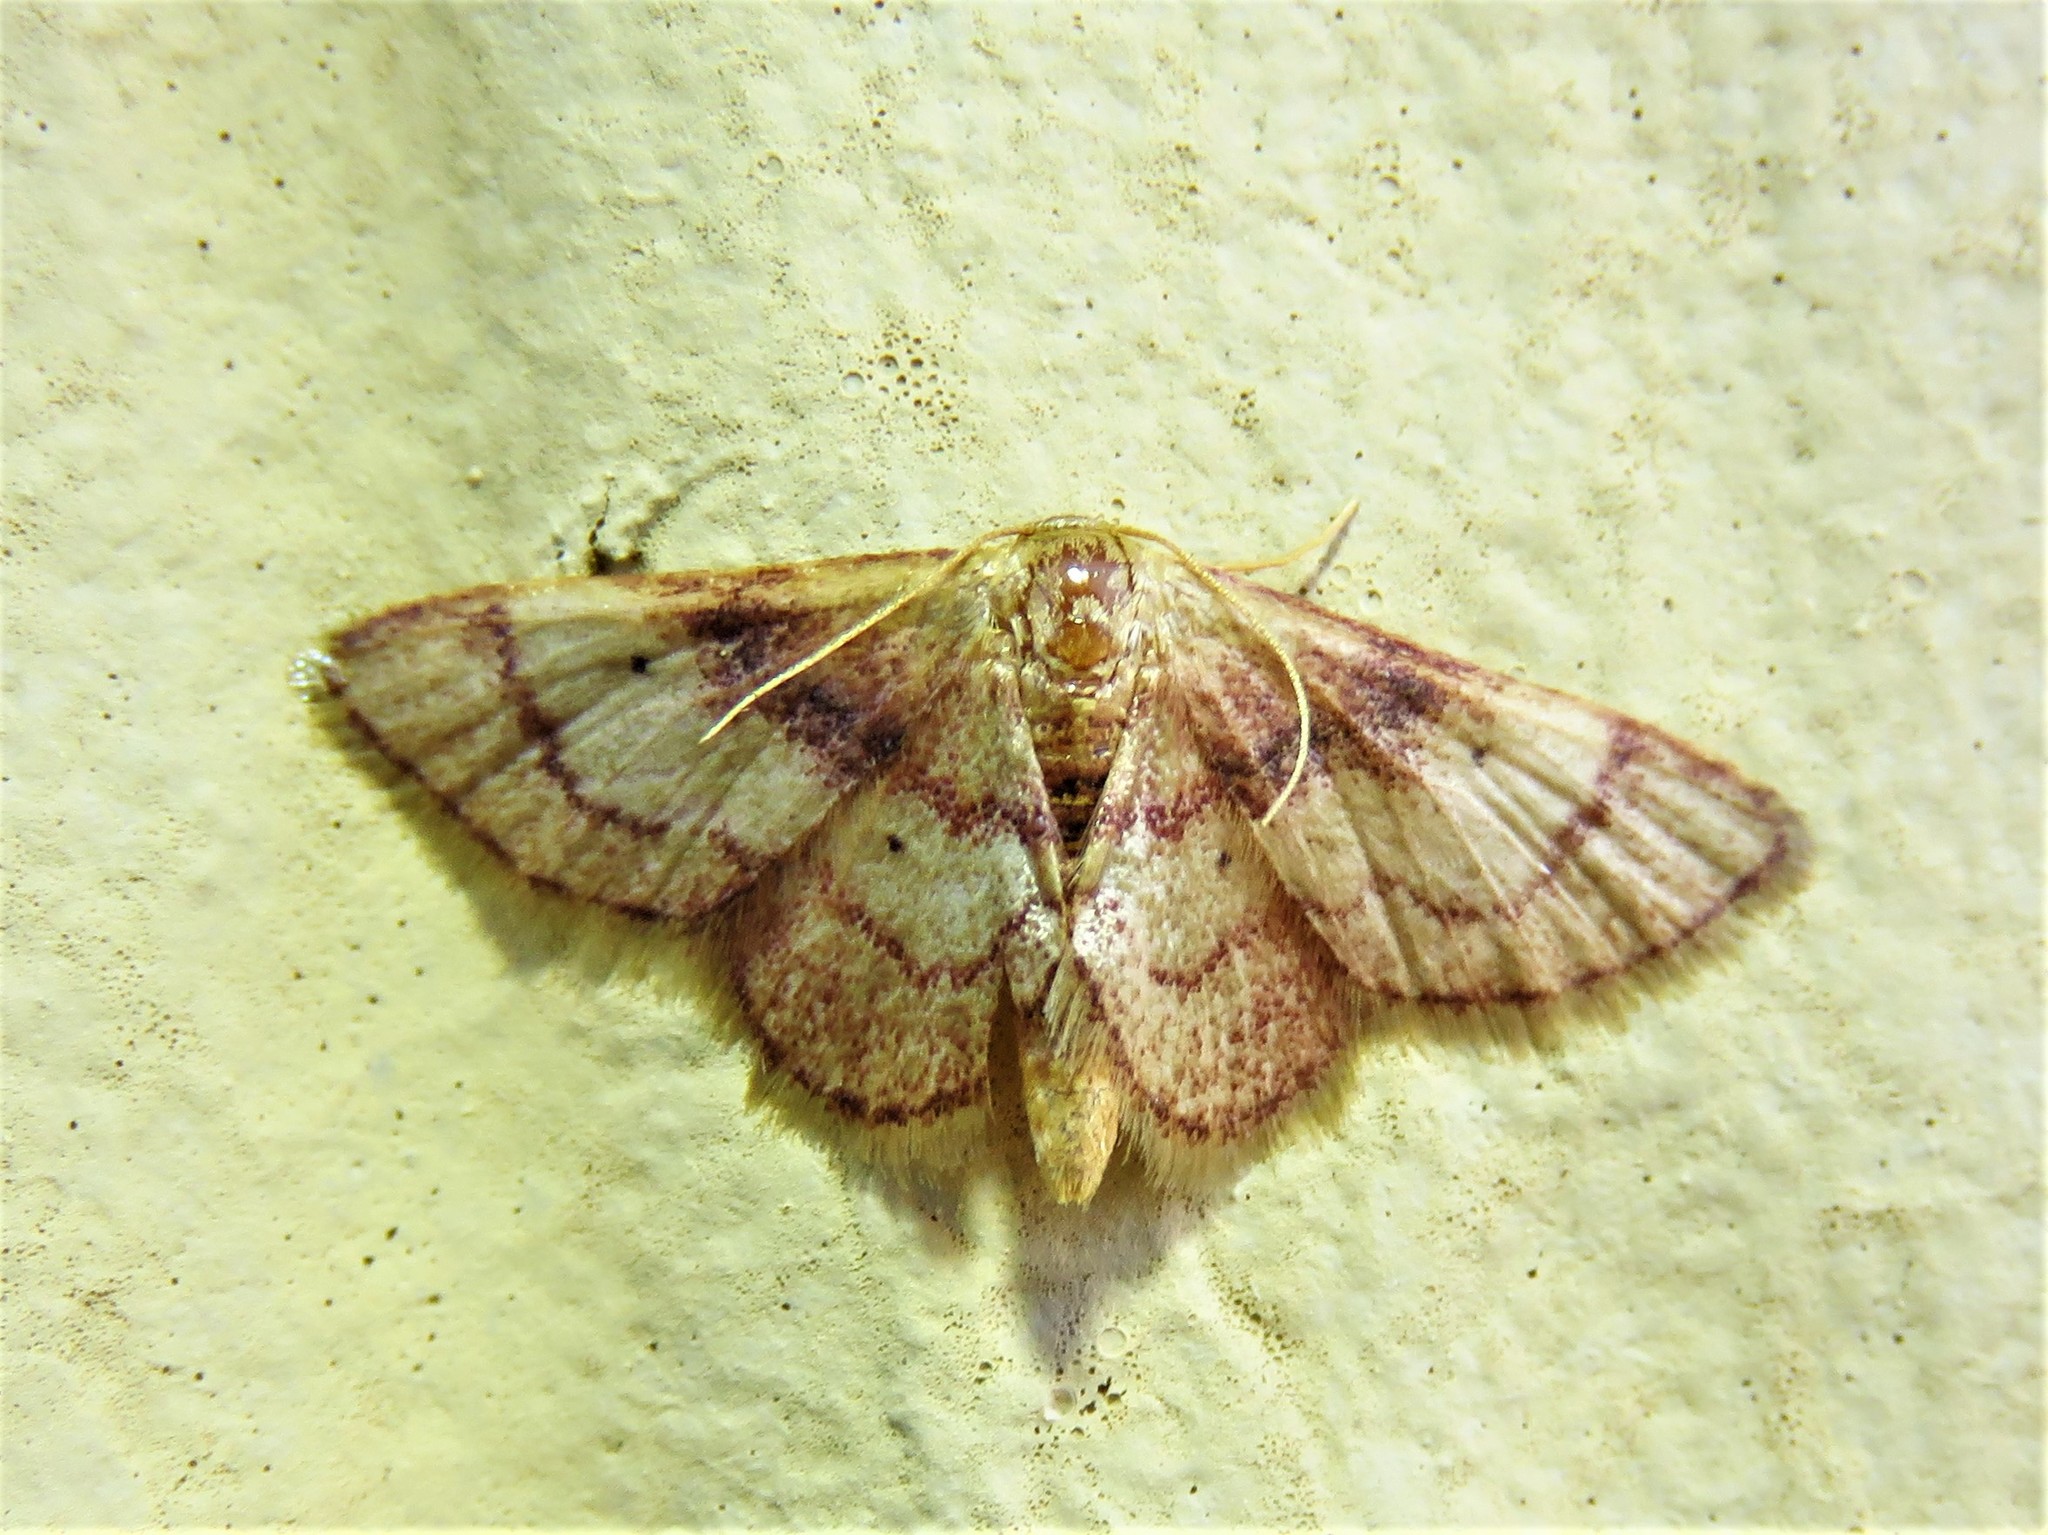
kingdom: Animalia
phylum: Arthropoda
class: Insecta
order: Lepidoptera
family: Geometridae
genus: Idaea
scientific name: Idaea demissaria
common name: Red-bordered wave
